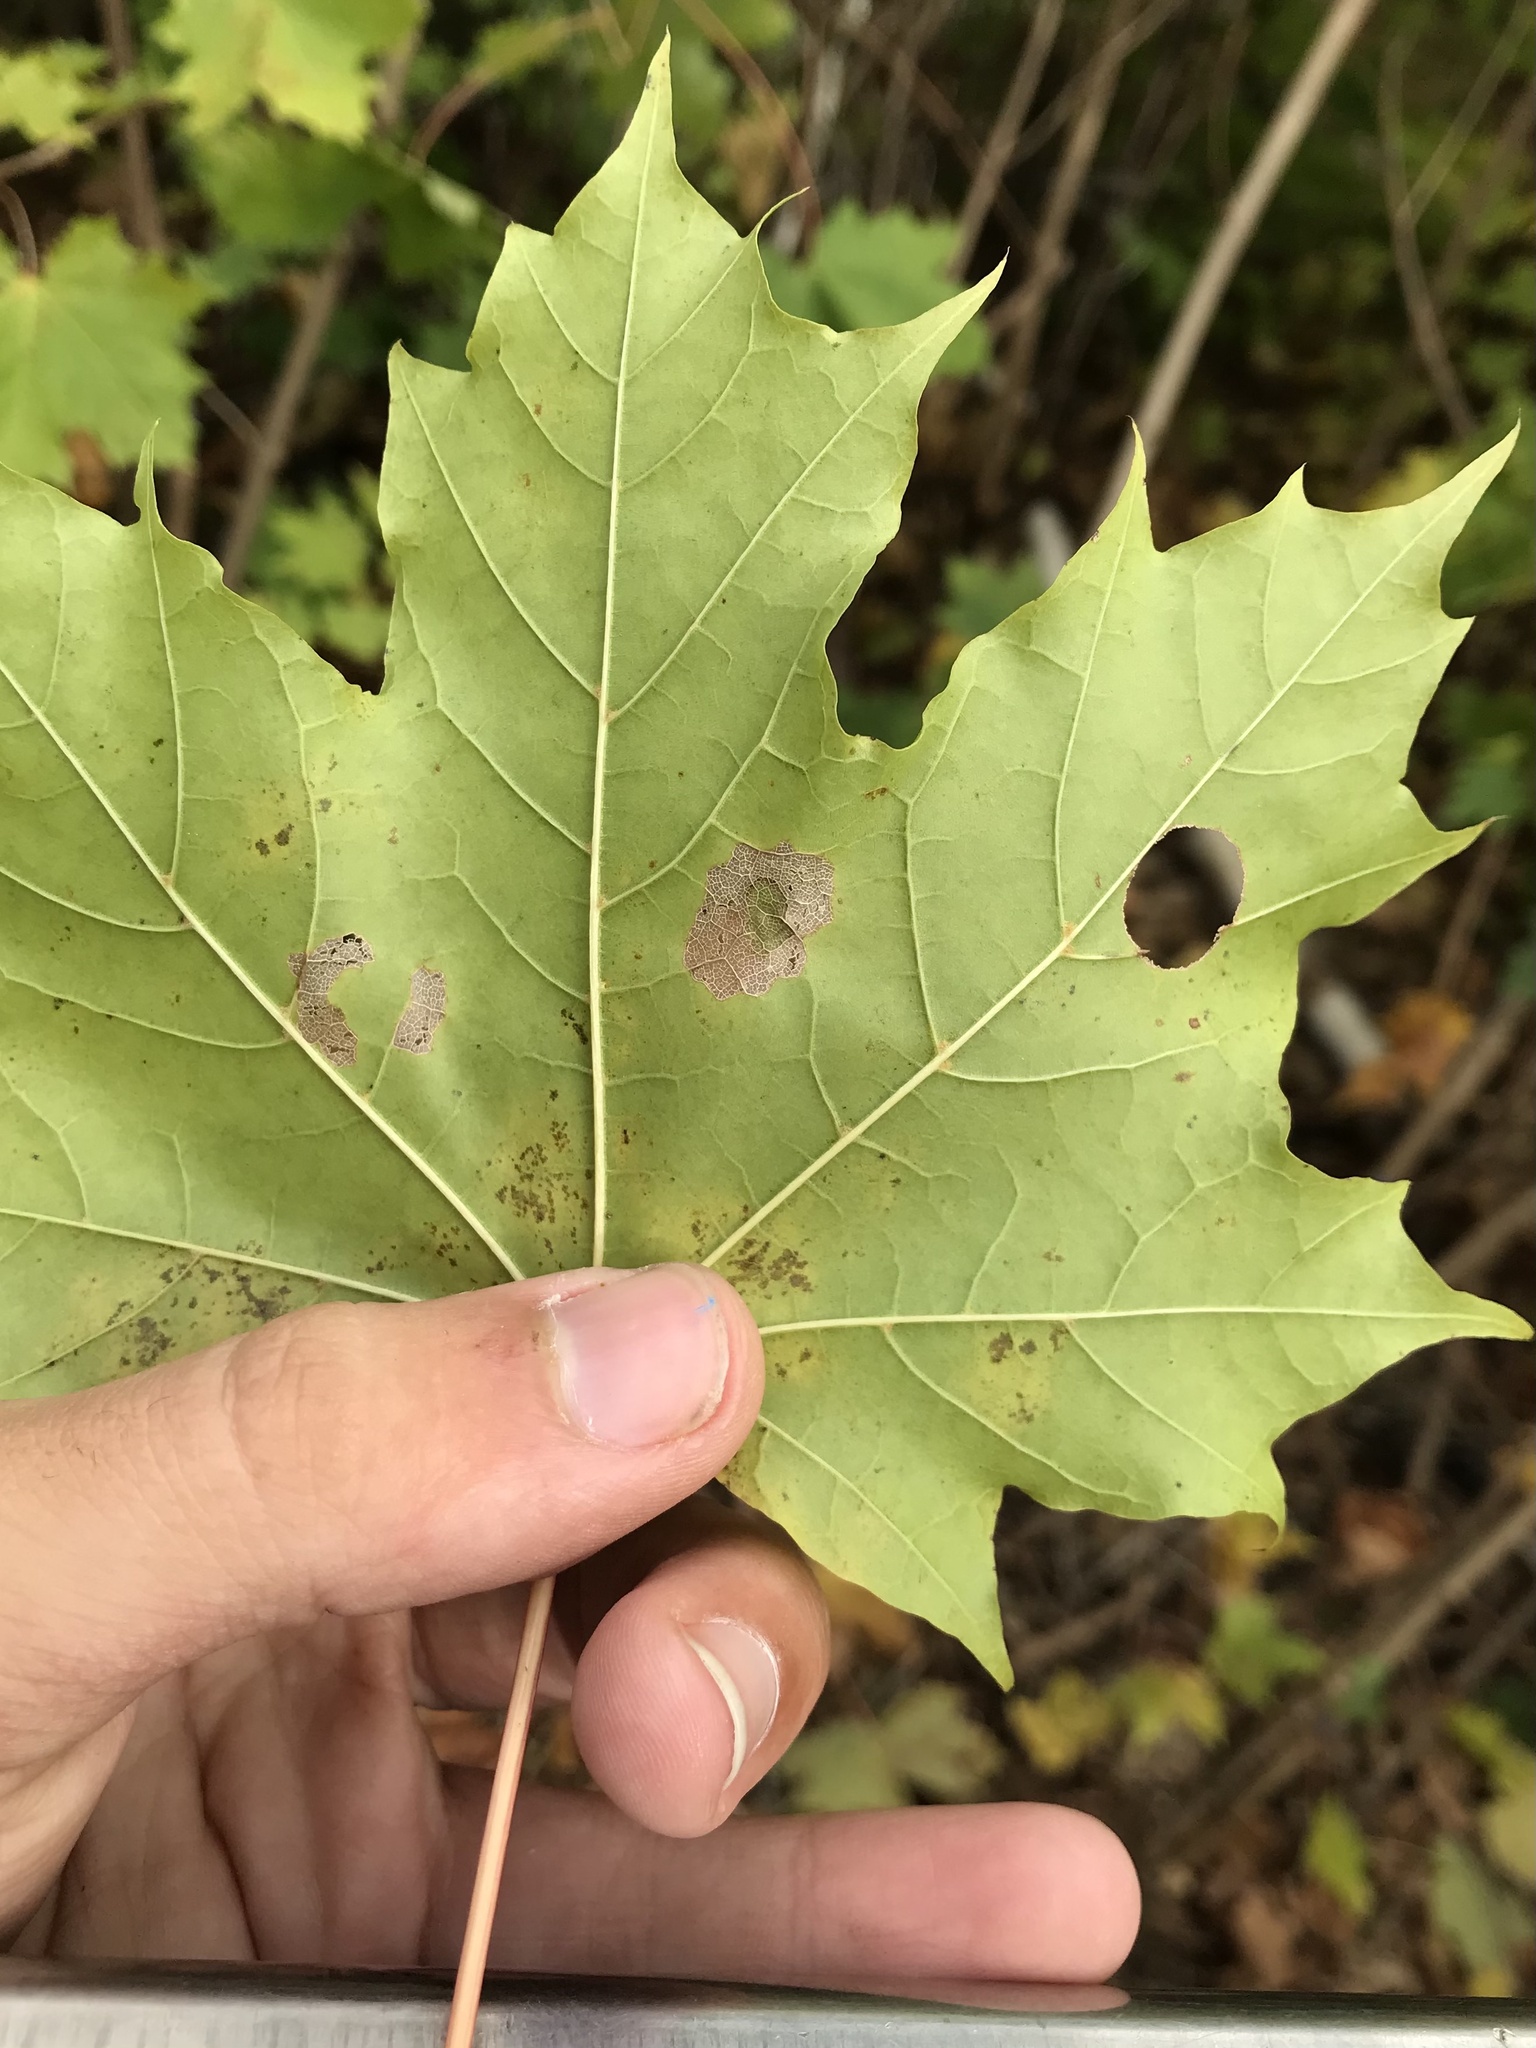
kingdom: Animalia
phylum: Arthropoda
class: Insecta
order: Lepidoptera
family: Incurvariidae
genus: Paraclemensia
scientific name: Paraclemensia acerifoliella
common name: Maple leafcutter
